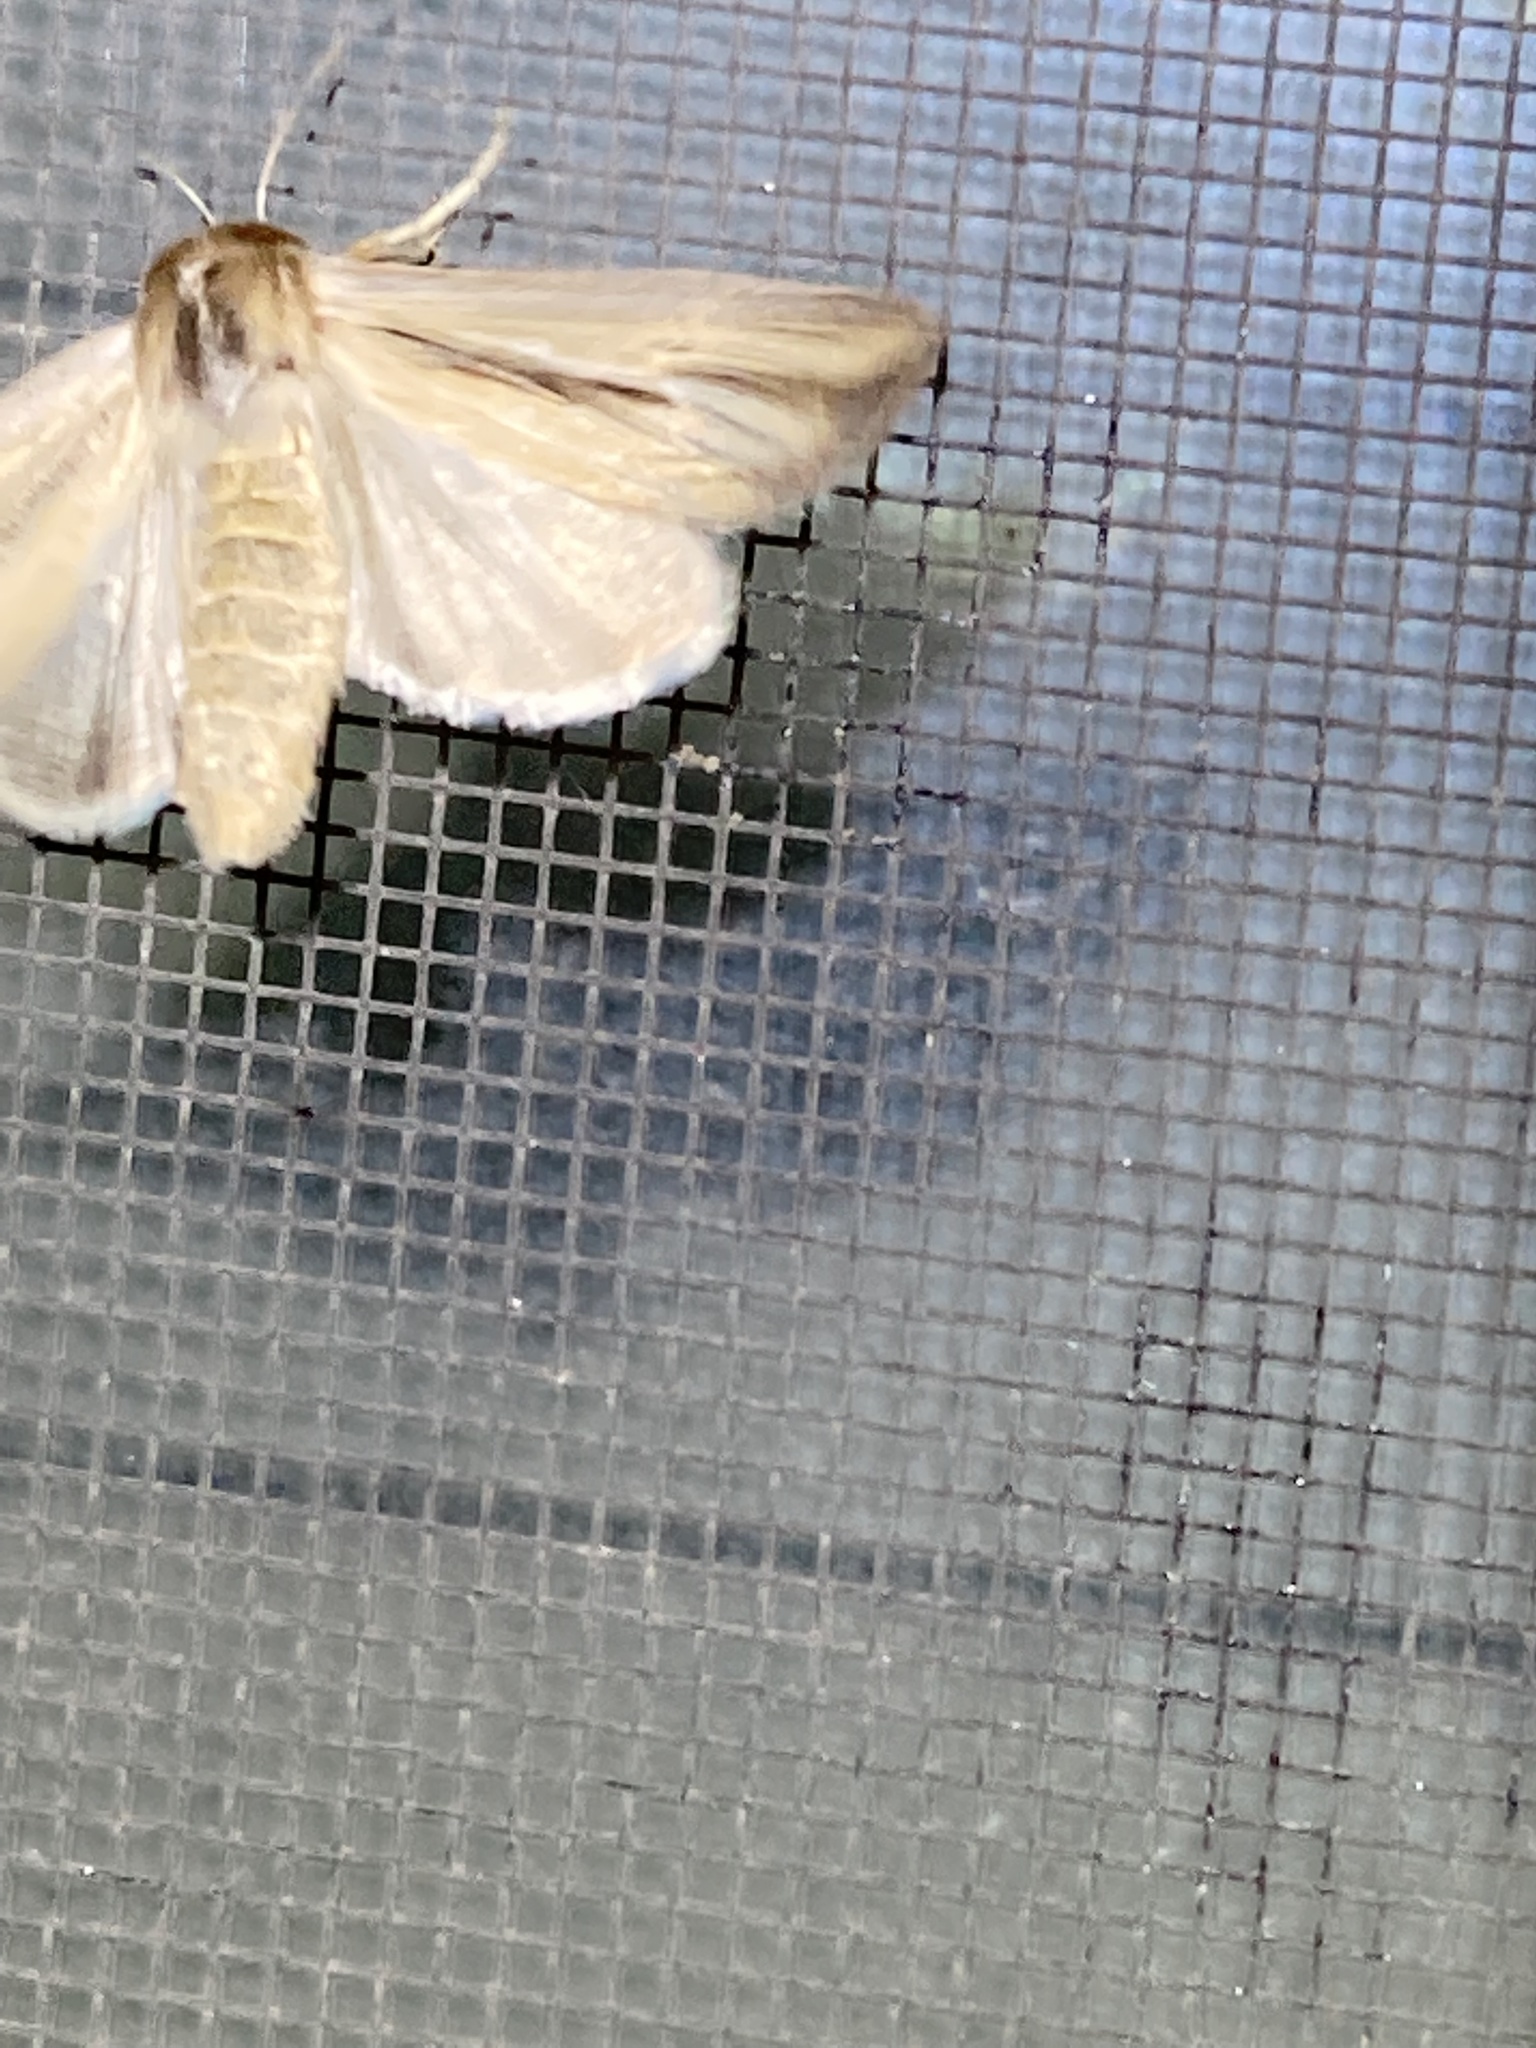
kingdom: Animalia
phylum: Arthropoda
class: Insecta
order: Lepidoptera
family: Noctuidae
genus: Dargida
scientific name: Dargida diffusa
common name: Wheat head armyworm
